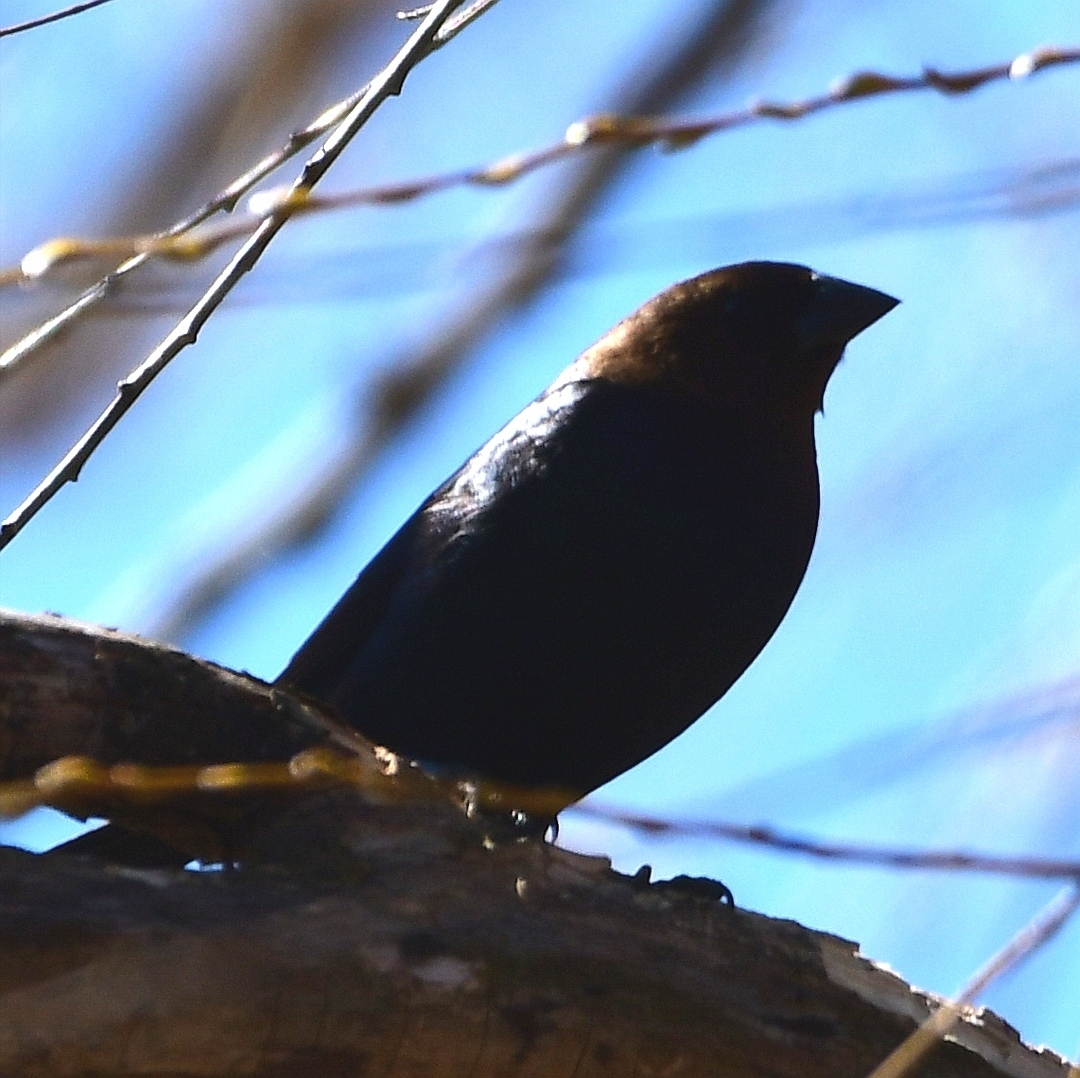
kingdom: Animalia
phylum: Chordata
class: Aves
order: Passeriformes
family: Icteridae
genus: Molothrus
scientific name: Molothrus ater
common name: Brown-headed cowbird
